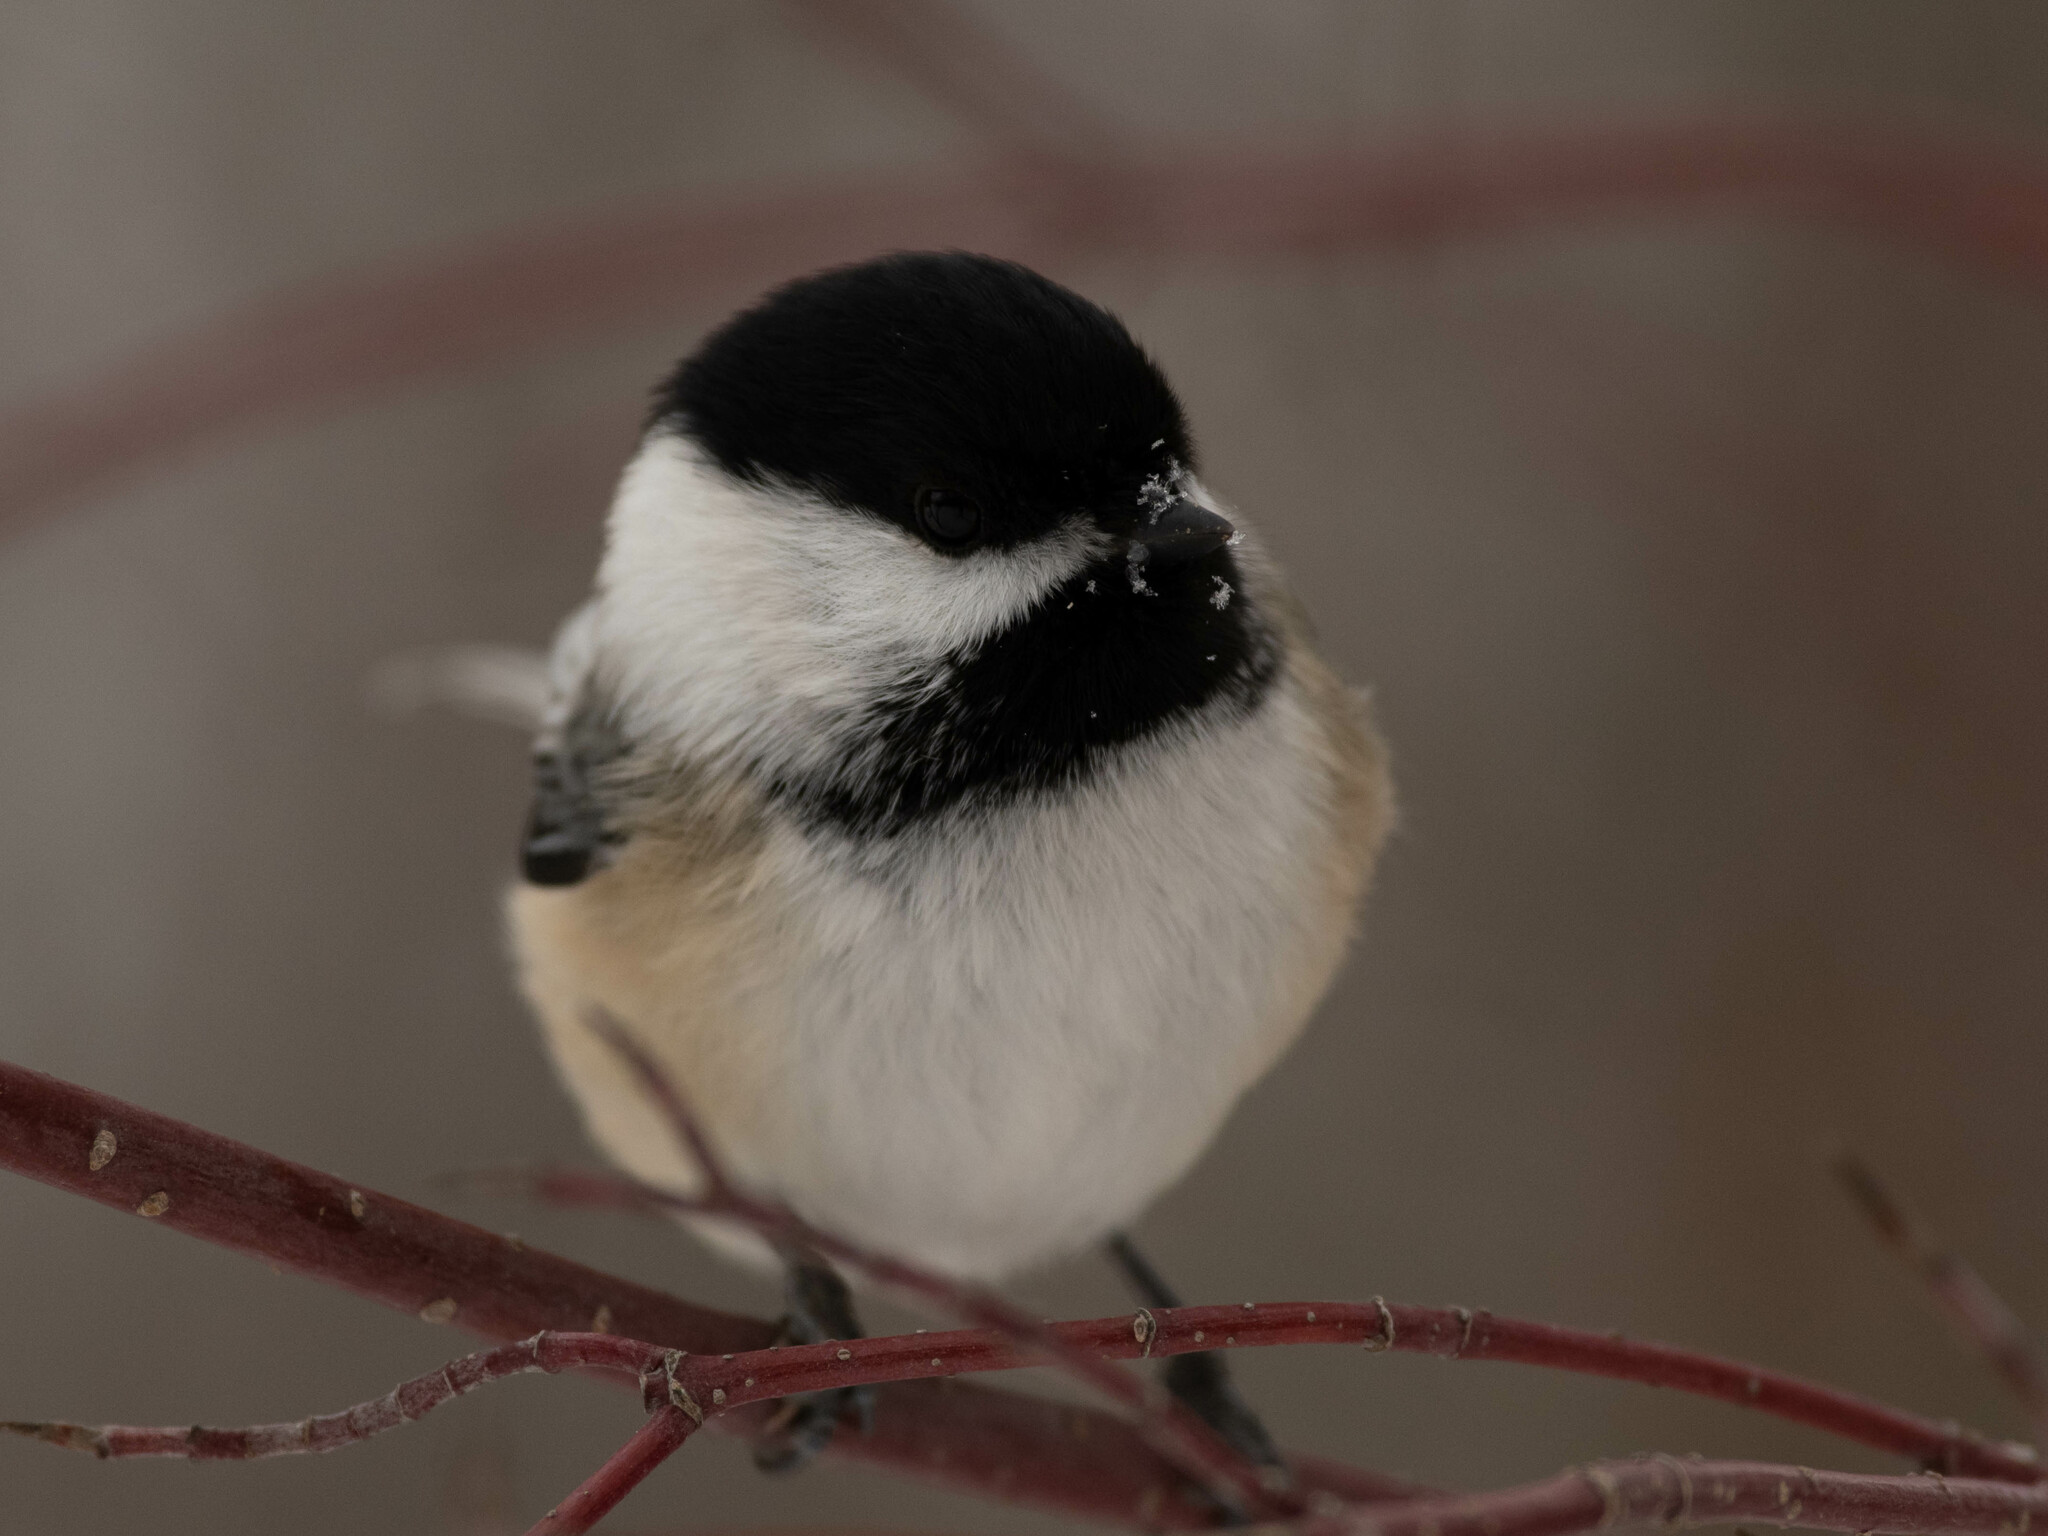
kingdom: Animalia
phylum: Chordata
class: Aves
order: Passeriformes
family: Paridae
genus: Poecile
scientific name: Poecile atricapillus
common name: Black-capped chickadee
